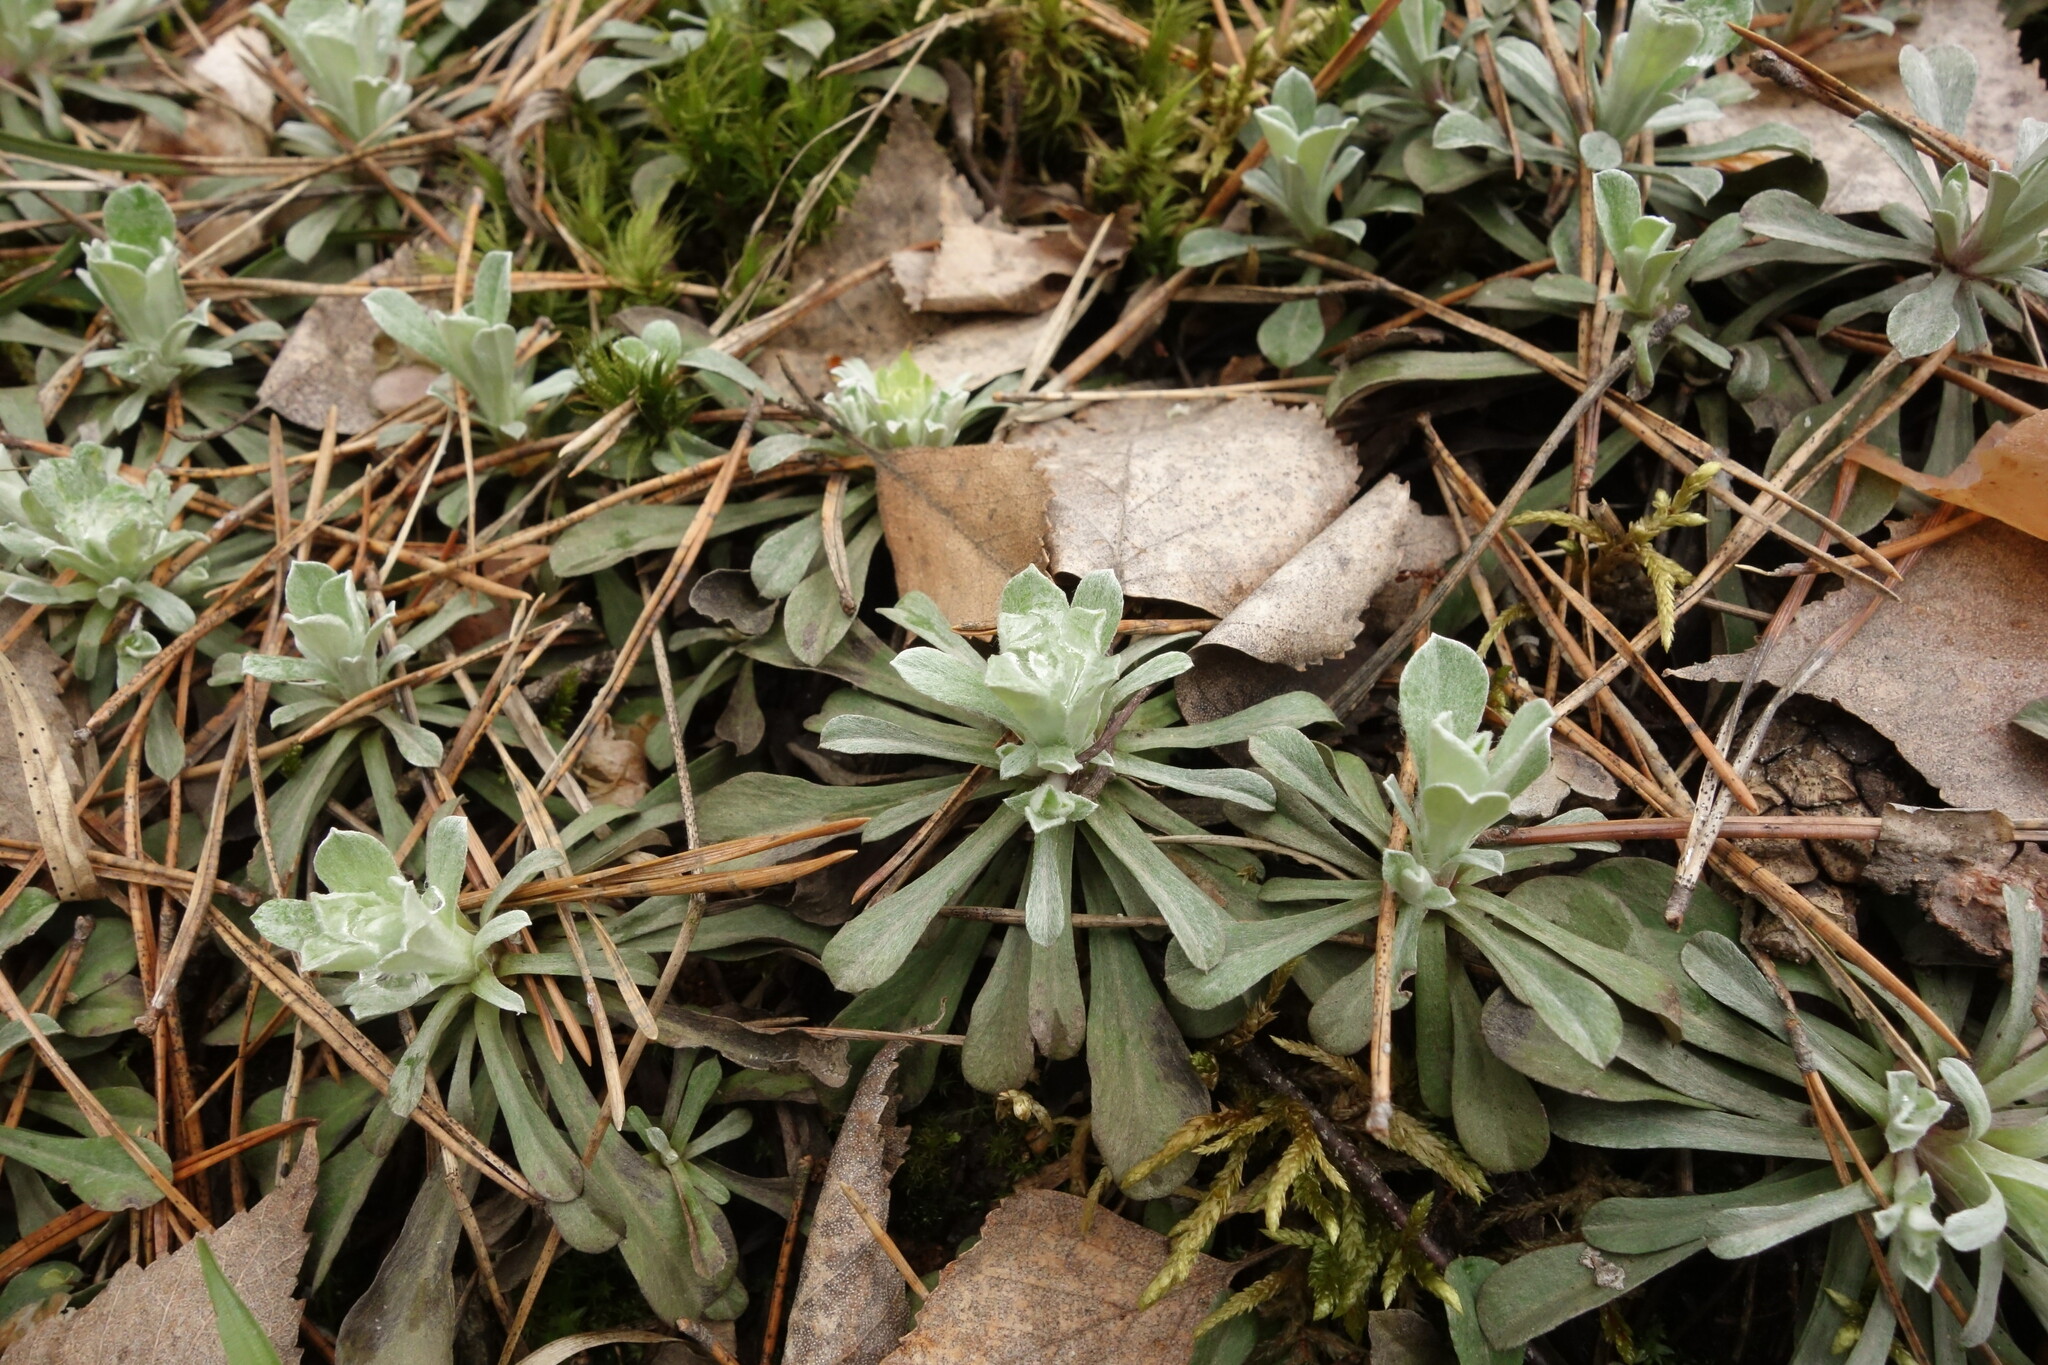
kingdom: Plantae
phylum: Tracheophyta
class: Magnoliopsida
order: Asterales
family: Asteraceae
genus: Antennaria
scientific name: Antennaria dioica
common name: Mountain everlasting
